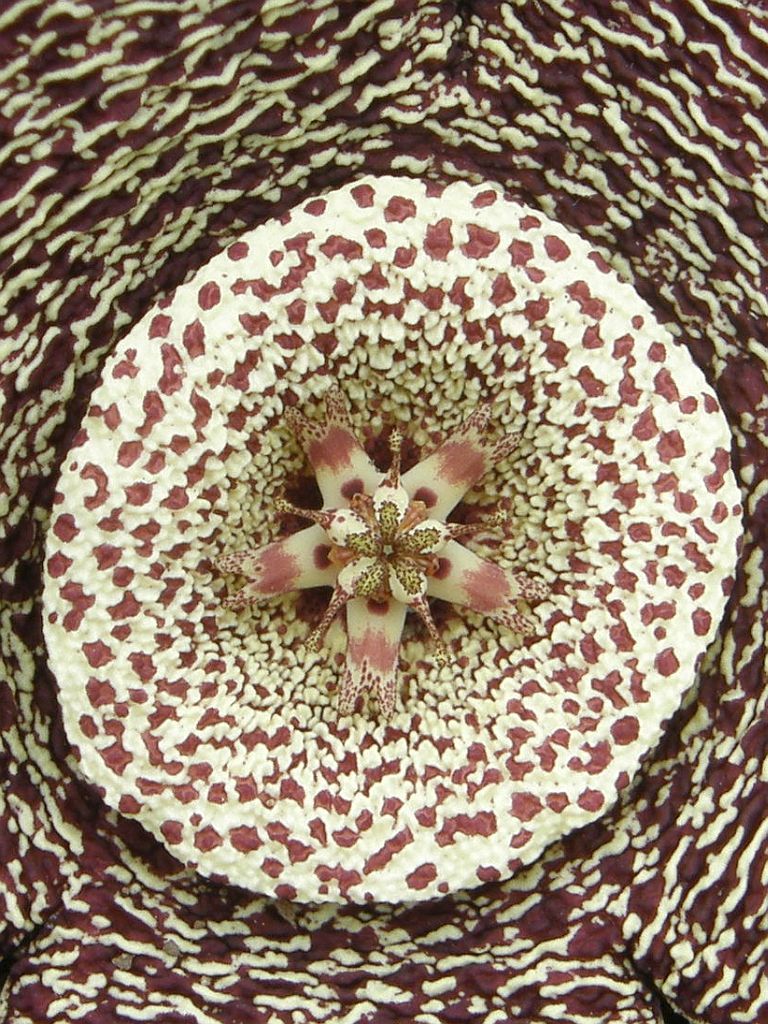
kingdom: Plantae
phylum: Tracheophyta
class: Magnoliopsida
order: Gentianales
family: Apocynaceae
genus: Ceropegia
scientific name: Ceropegia mixta
